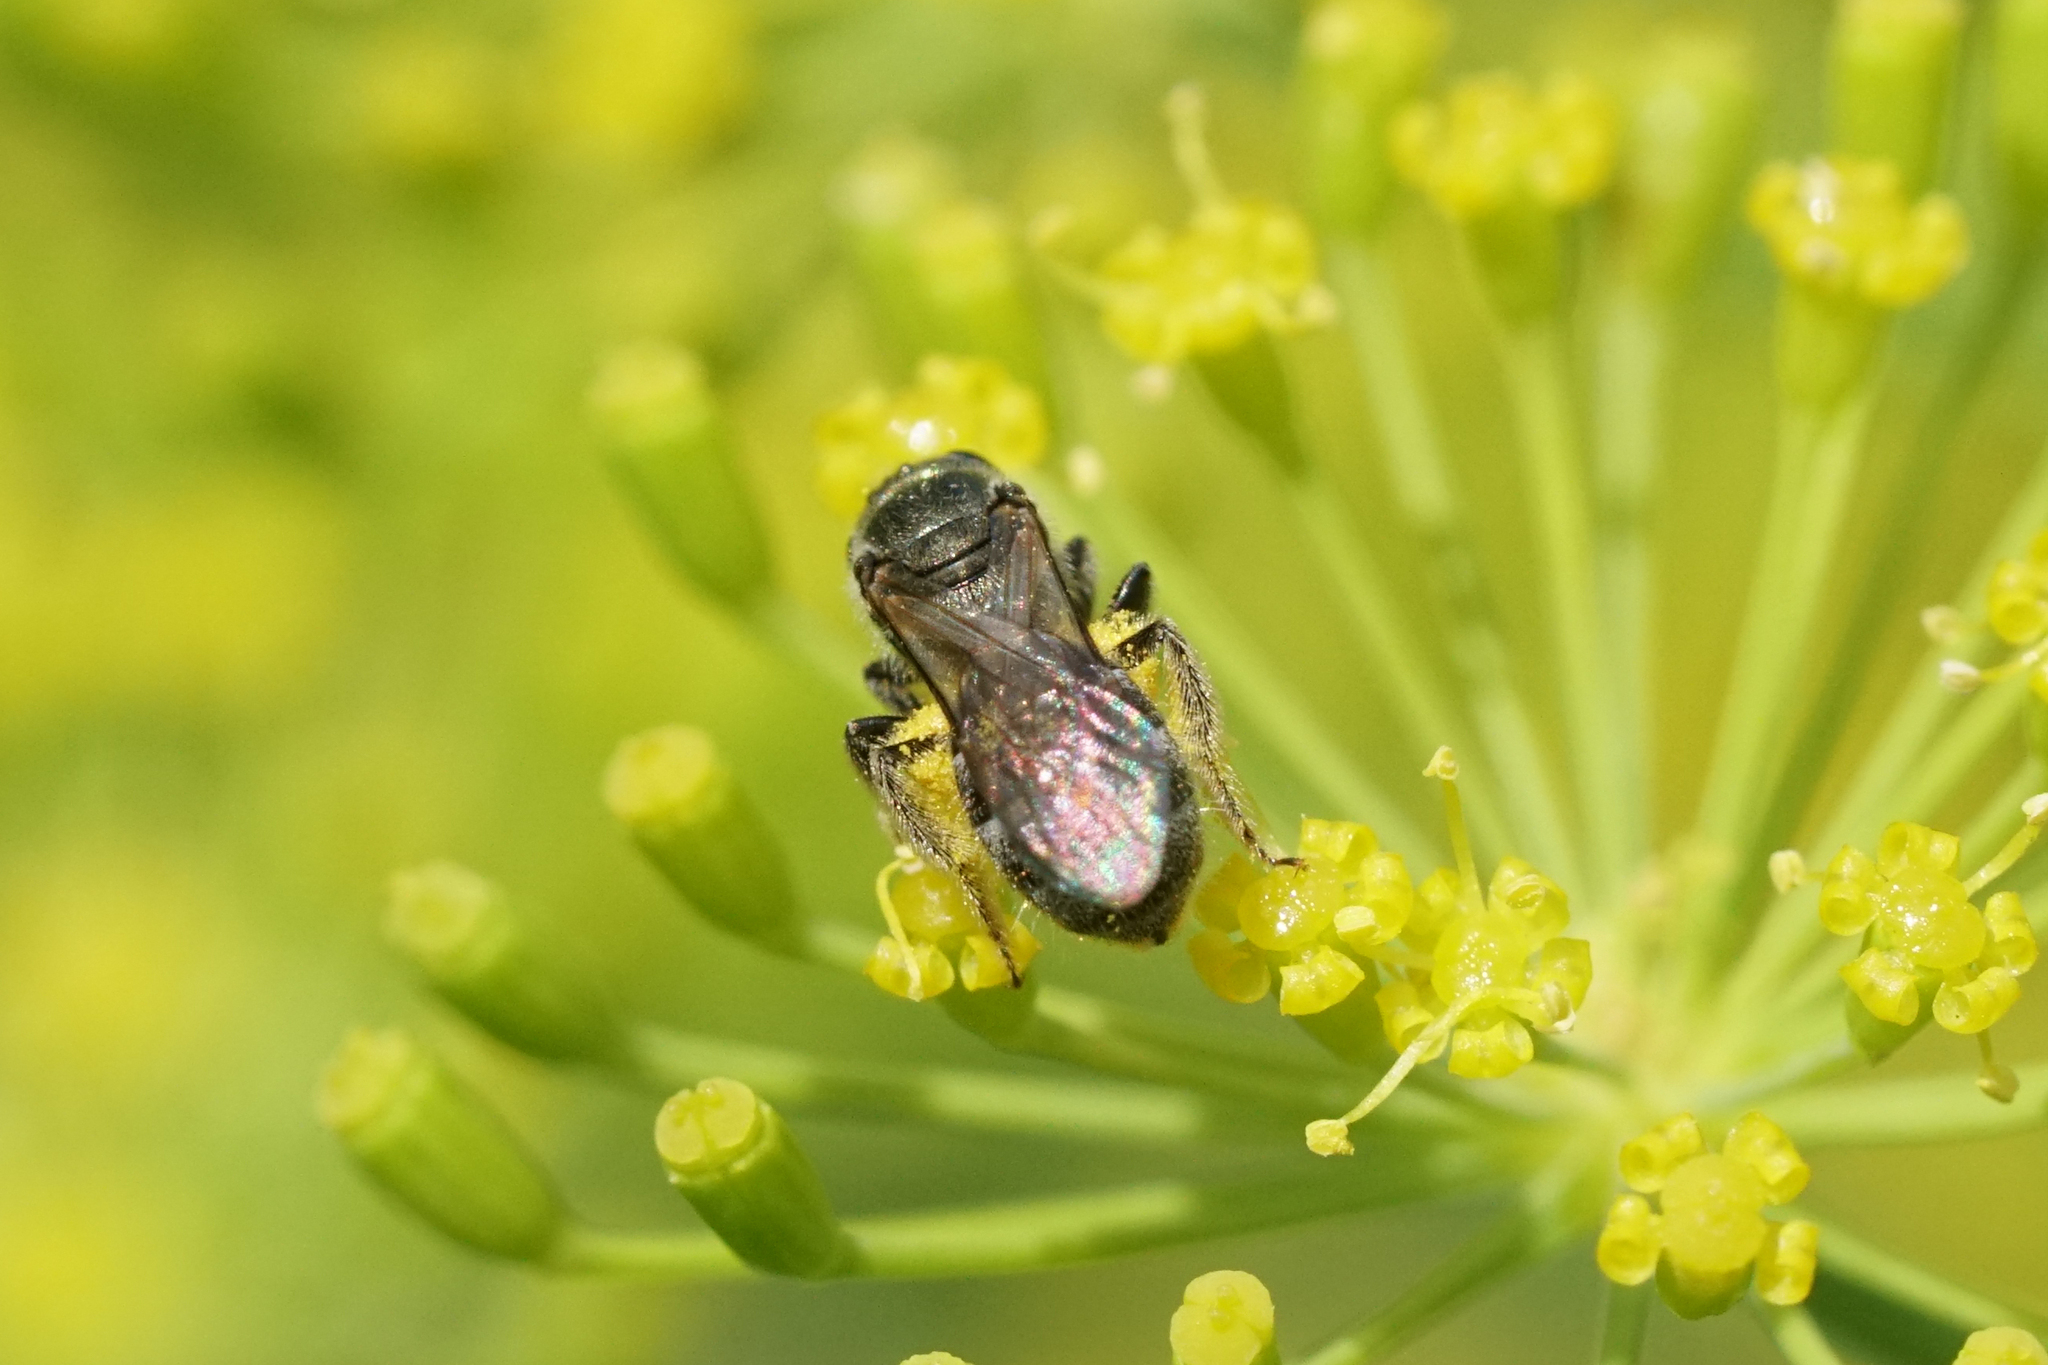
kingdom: Animalia
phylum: Arthropoda
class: Insecta
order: Hymenoptera
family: Halictidae
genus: Dialictus
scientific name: Dialictus
